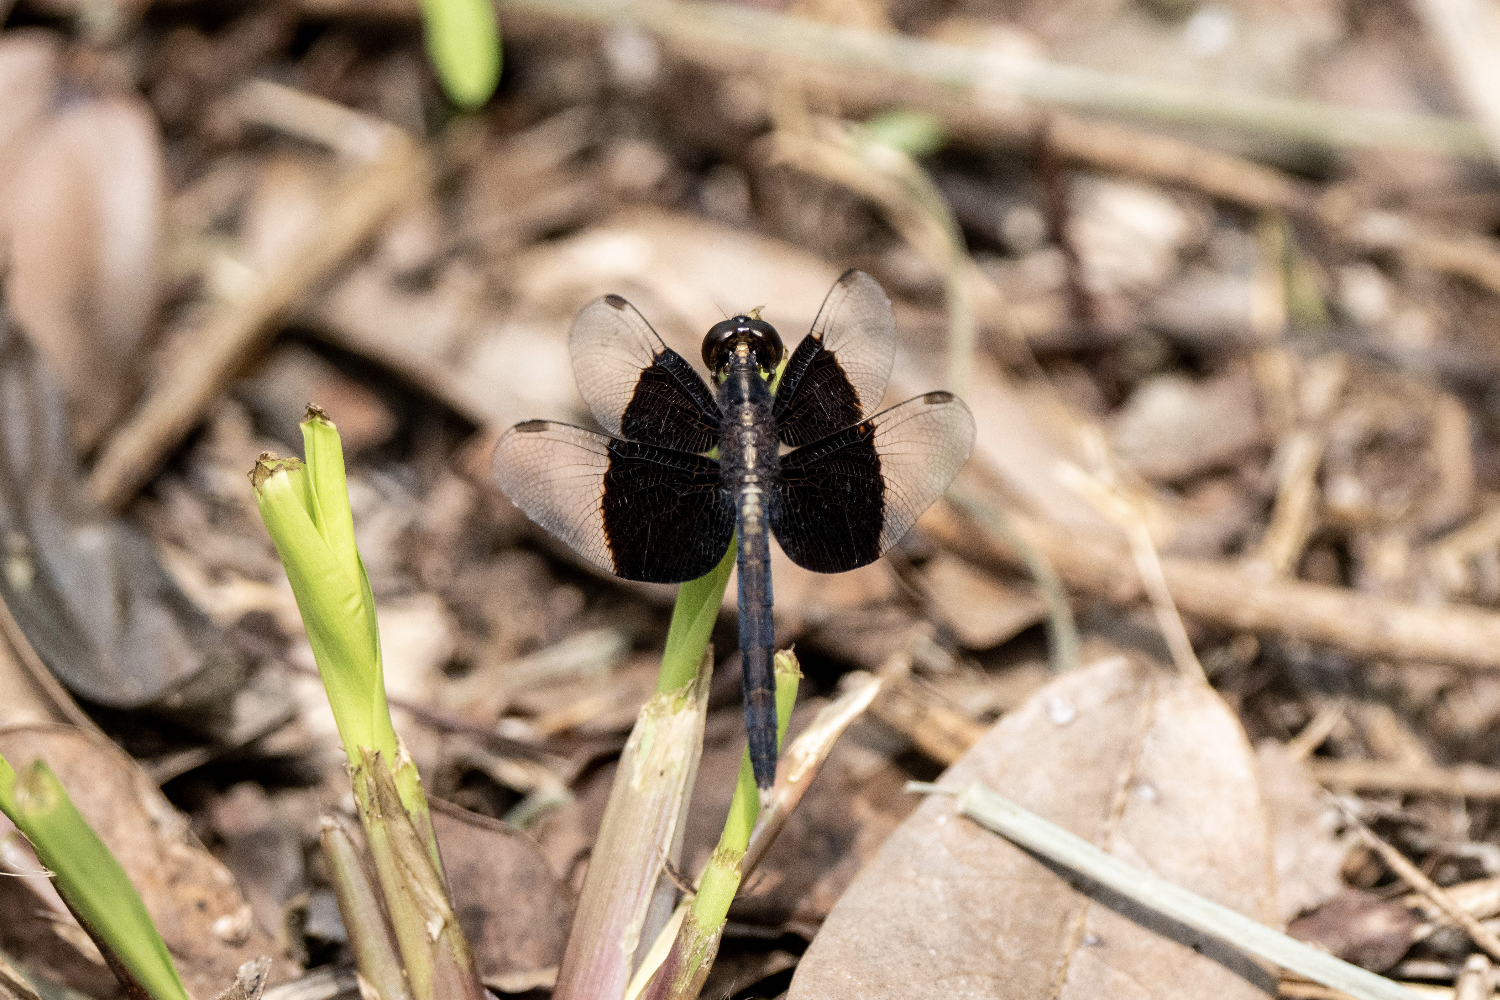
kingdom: Animalia
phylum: Arthropoda
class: Insecta
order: Odonata
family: Libellulidae
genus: Neurothemis
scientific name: Neurothemis tullia
